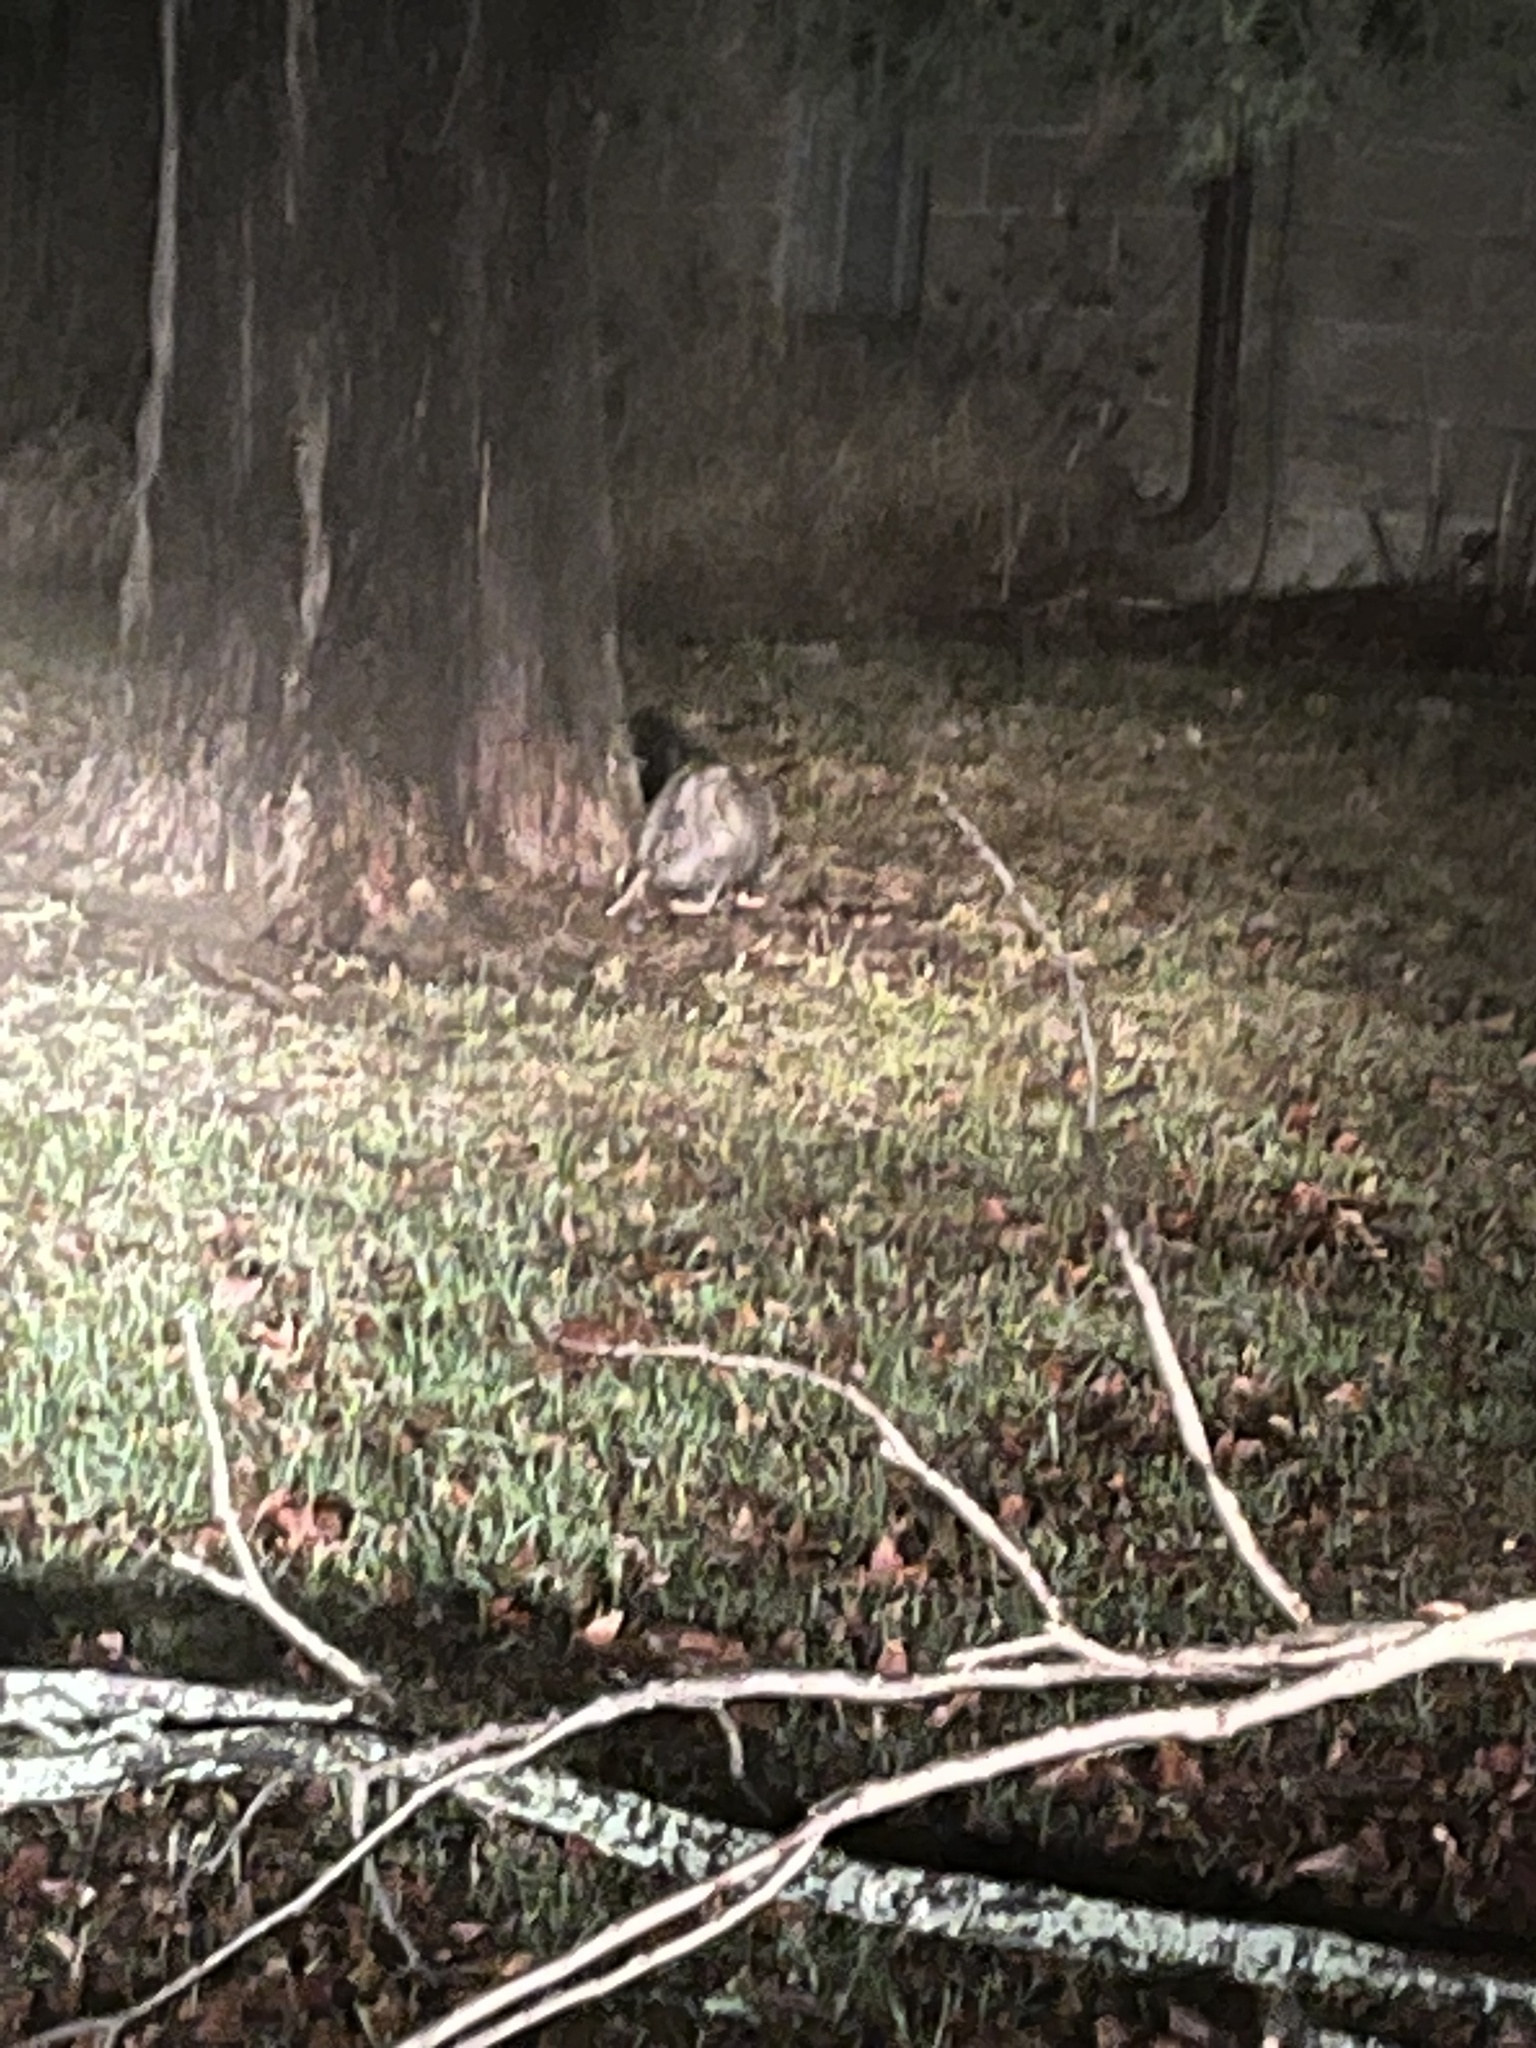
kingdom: Animalia
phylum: Chordata
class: Mammalia
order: Didelphimorphia
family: Didelphidae
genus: Didelphis
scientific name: Didelphis virginiana
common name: Virginia opossum
